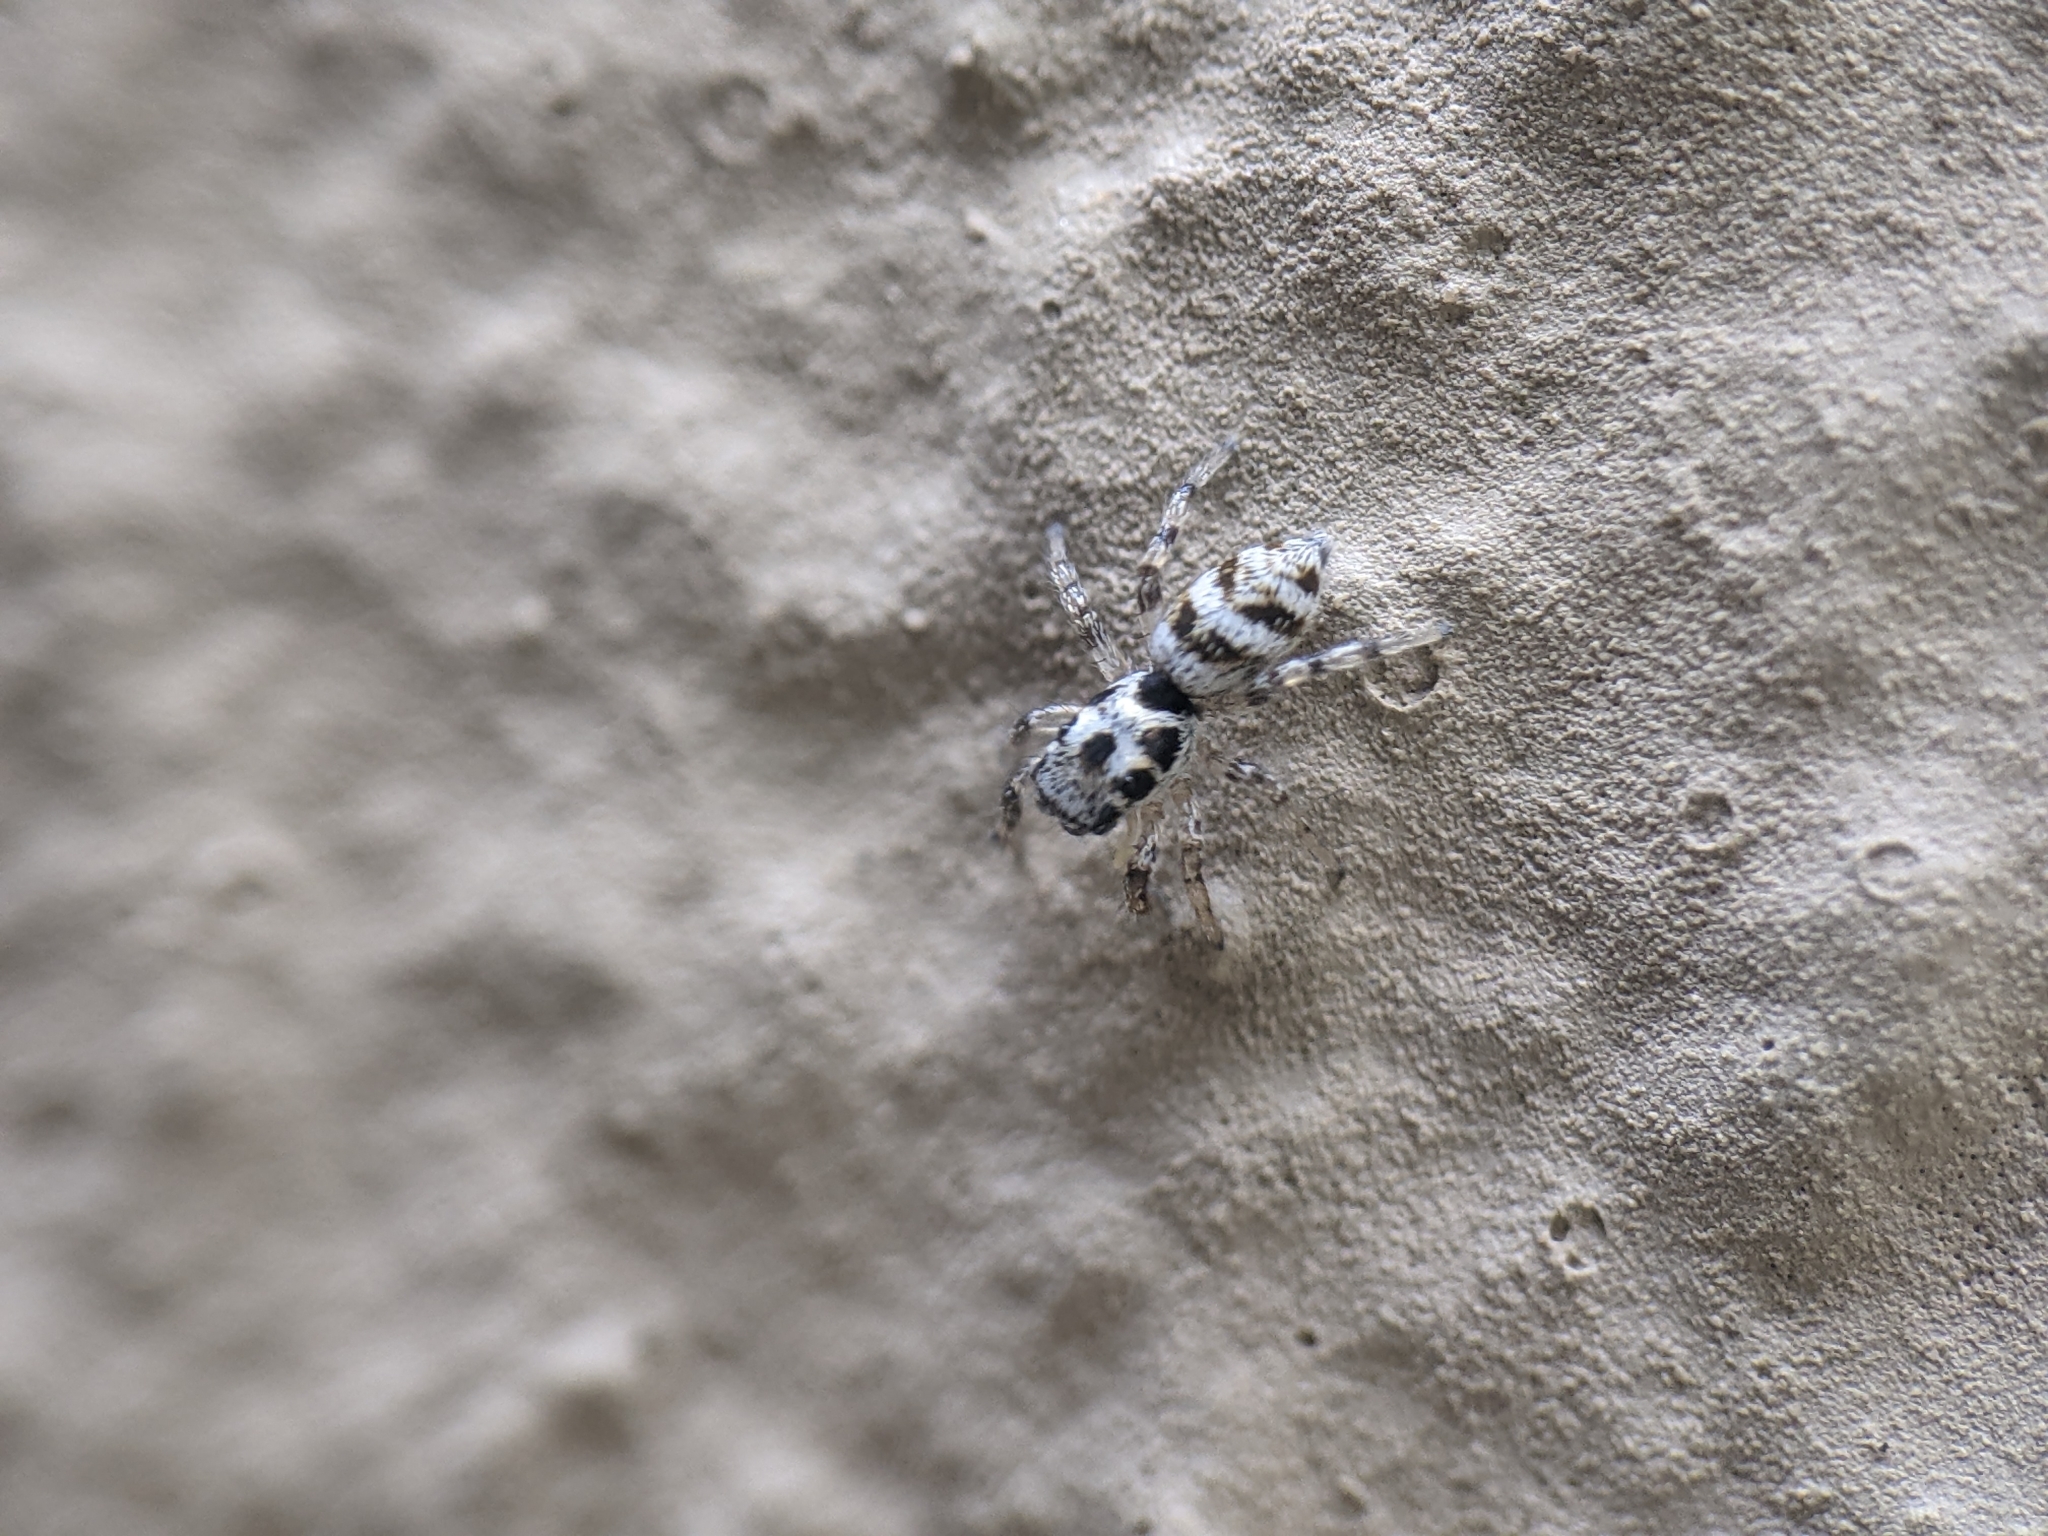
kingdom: Animalia
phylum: Arthropoda
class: Arachnida
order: Araneae
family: Salticidae
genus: Salticus
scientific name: Salticus scenicus
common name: Zebra jumper
